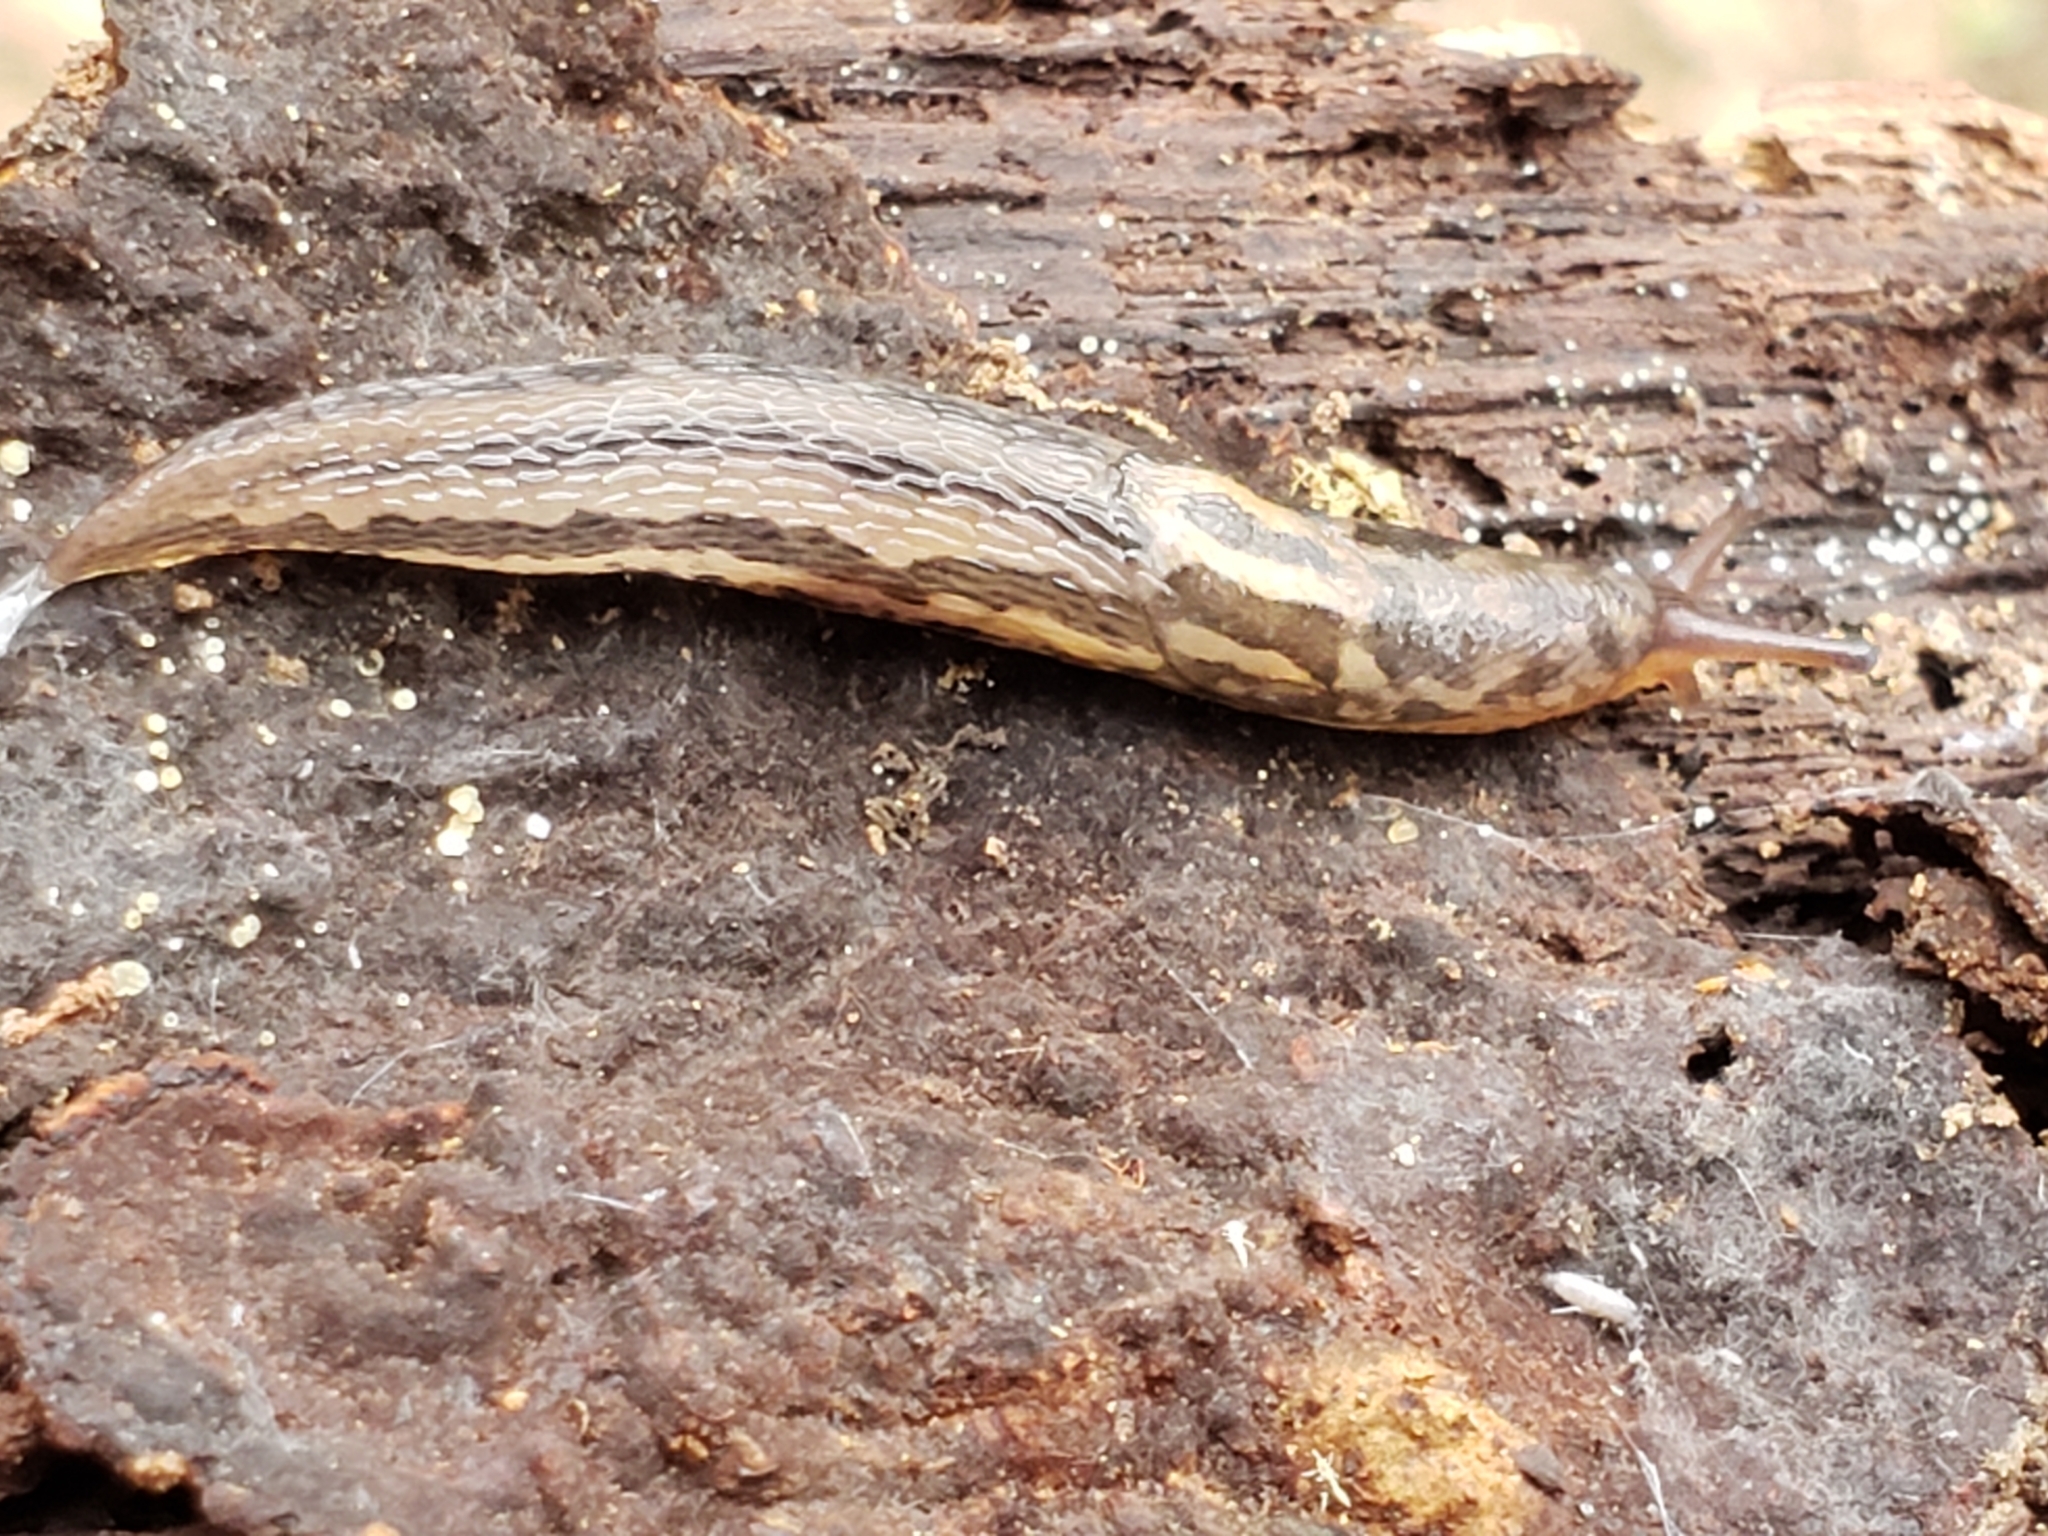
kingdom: Animalia
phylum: Mollusca
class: Gastropoda
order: Stylommatophora
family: Limacidae
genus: Limax
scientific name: Limax maximus
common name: Great grey slug
